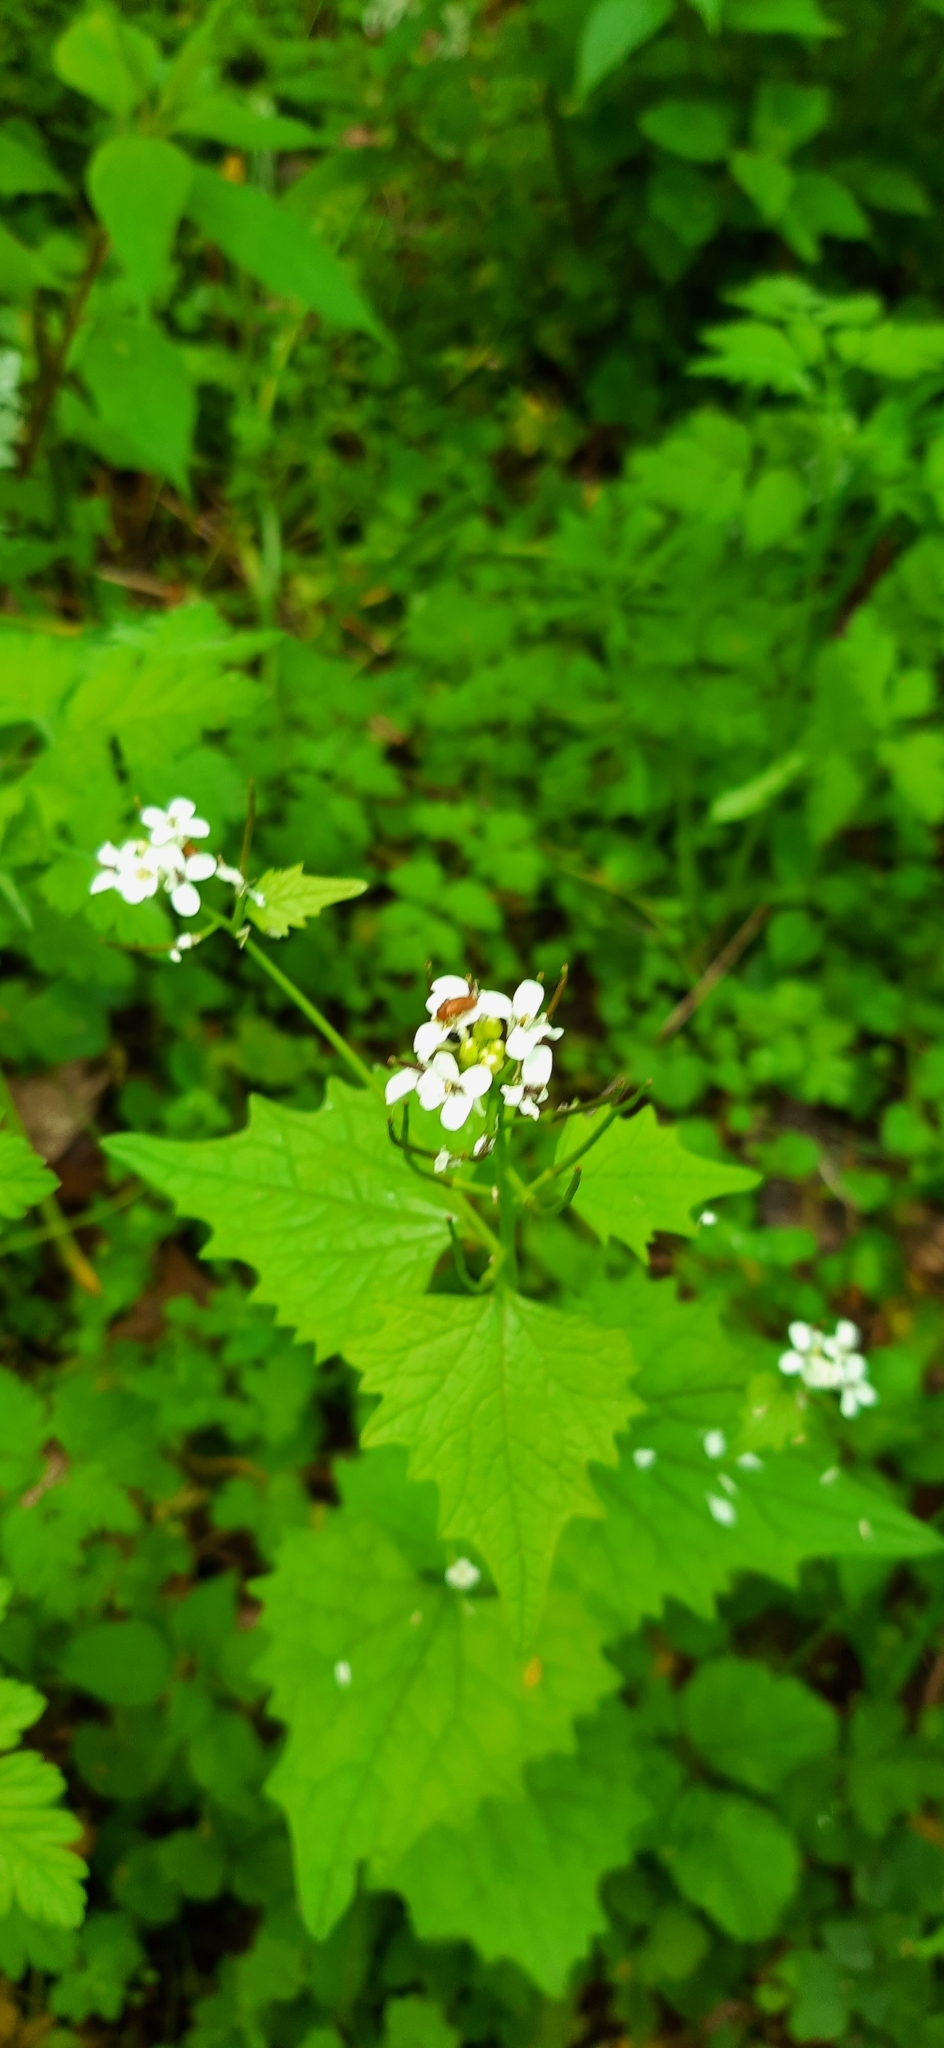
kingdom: Plantae
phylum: Tracheophyta
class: Magnoliopsida
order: Brassicales
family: Brassicaceae
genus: Alliaria
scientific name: Alliaria petiolata
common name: Garlic mustard
